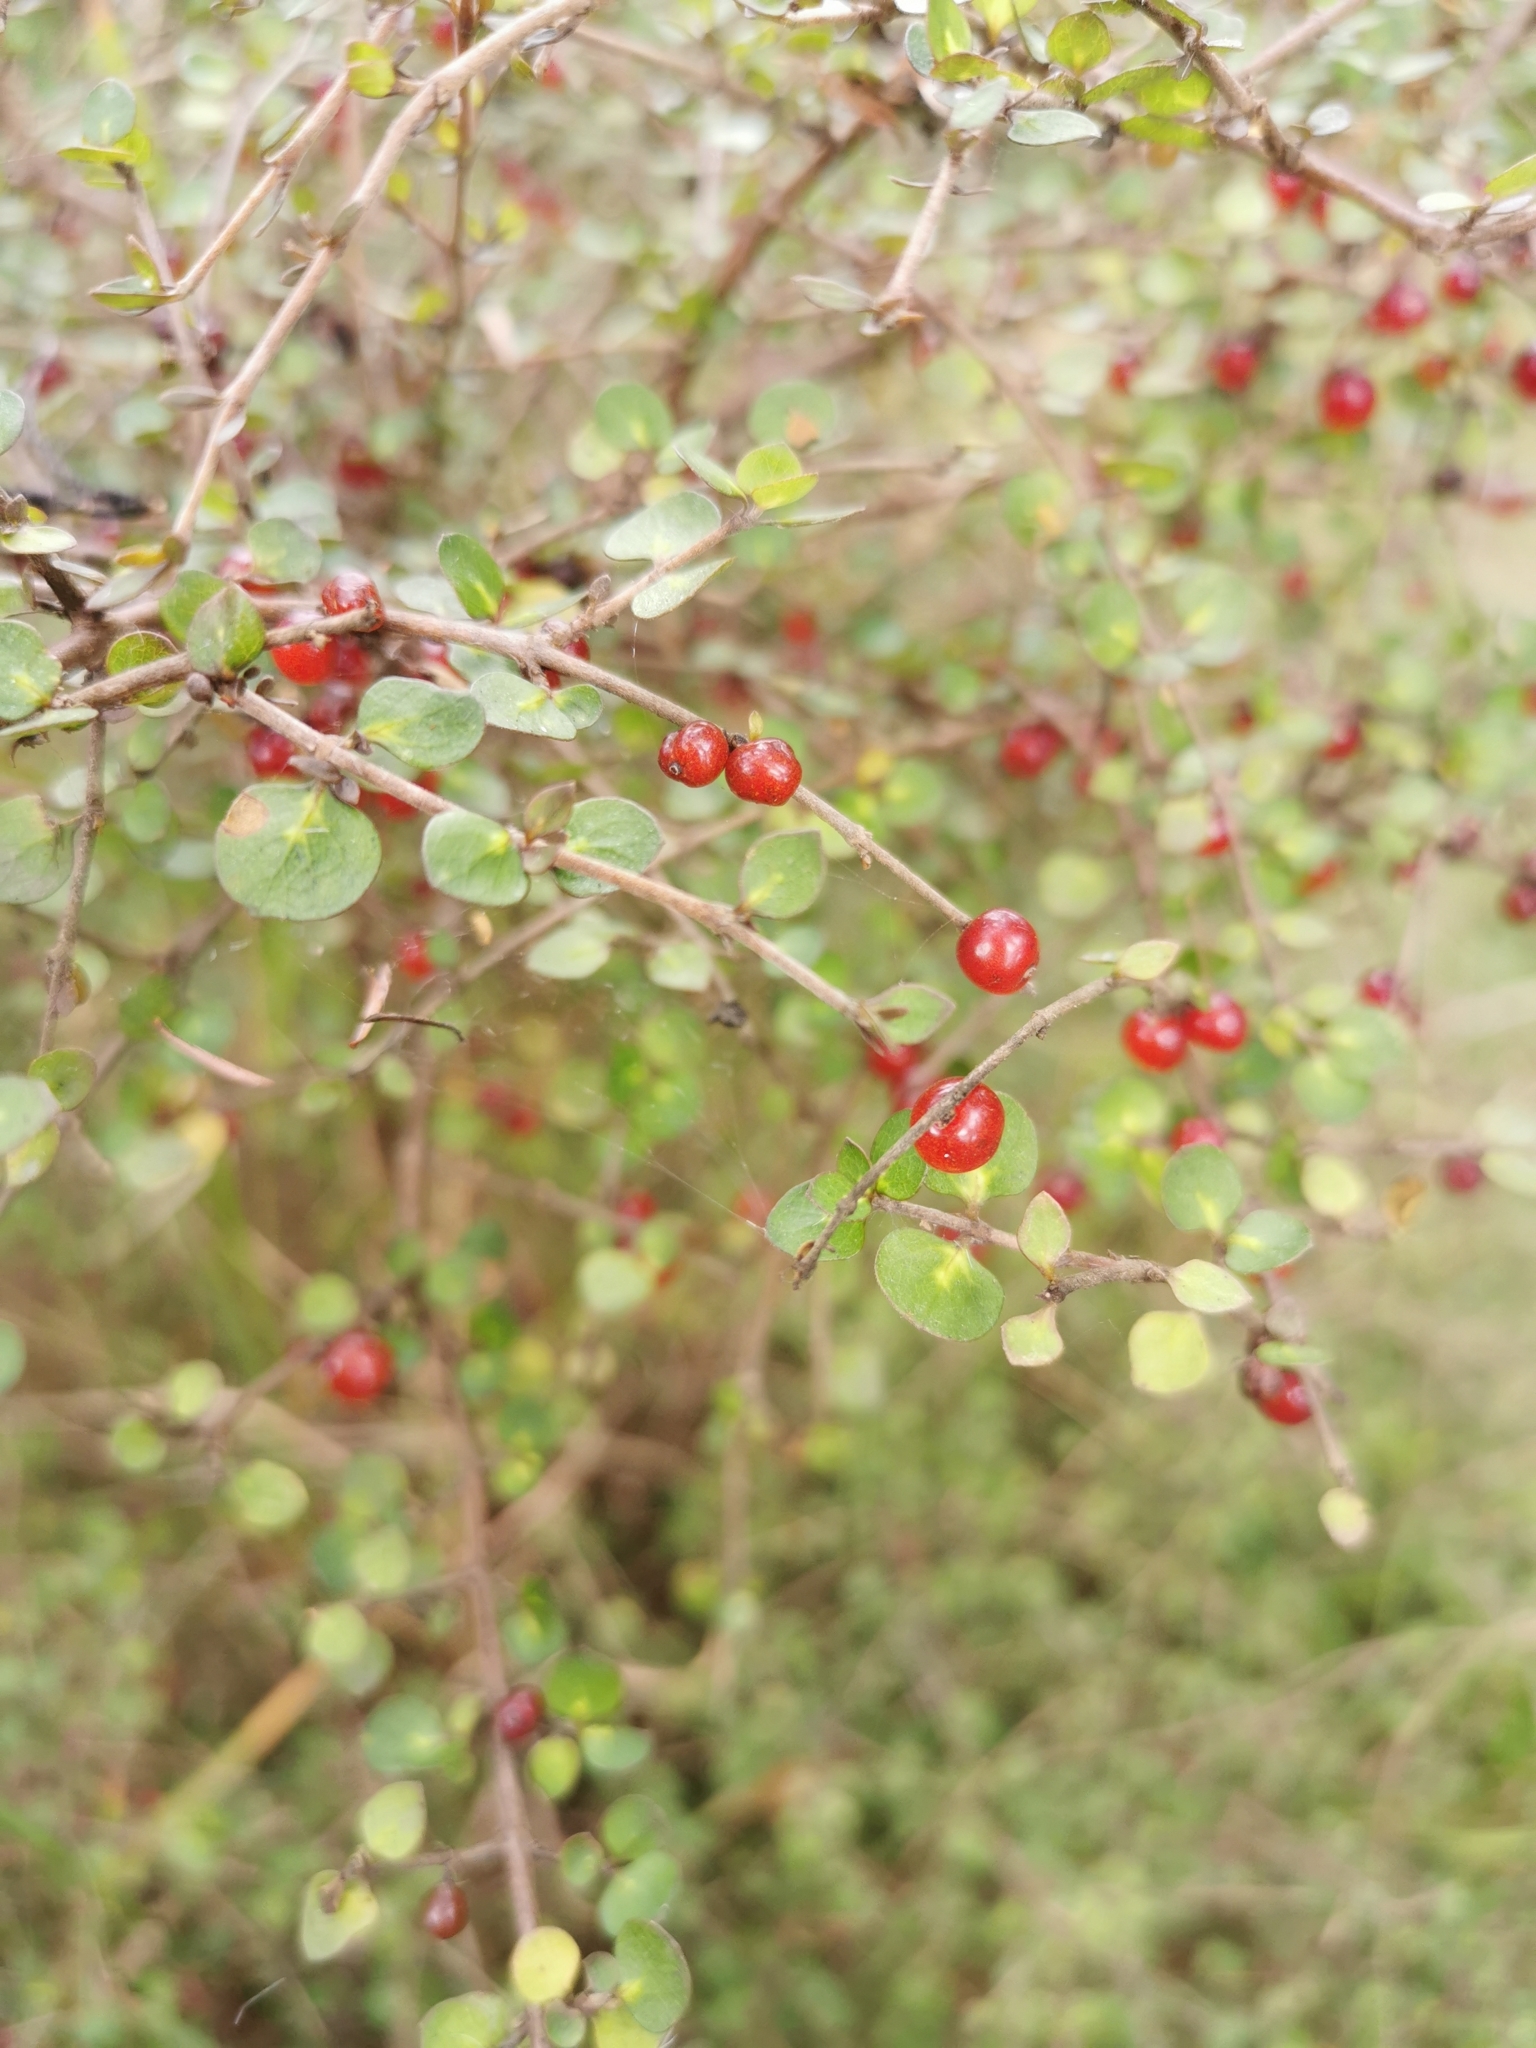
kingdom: Plantae
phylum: Tracheophyta
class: Magnoliopsida
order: Gentianales
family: Rubiaceae
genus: Coprosma
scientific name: Coprosma rhamnoides
